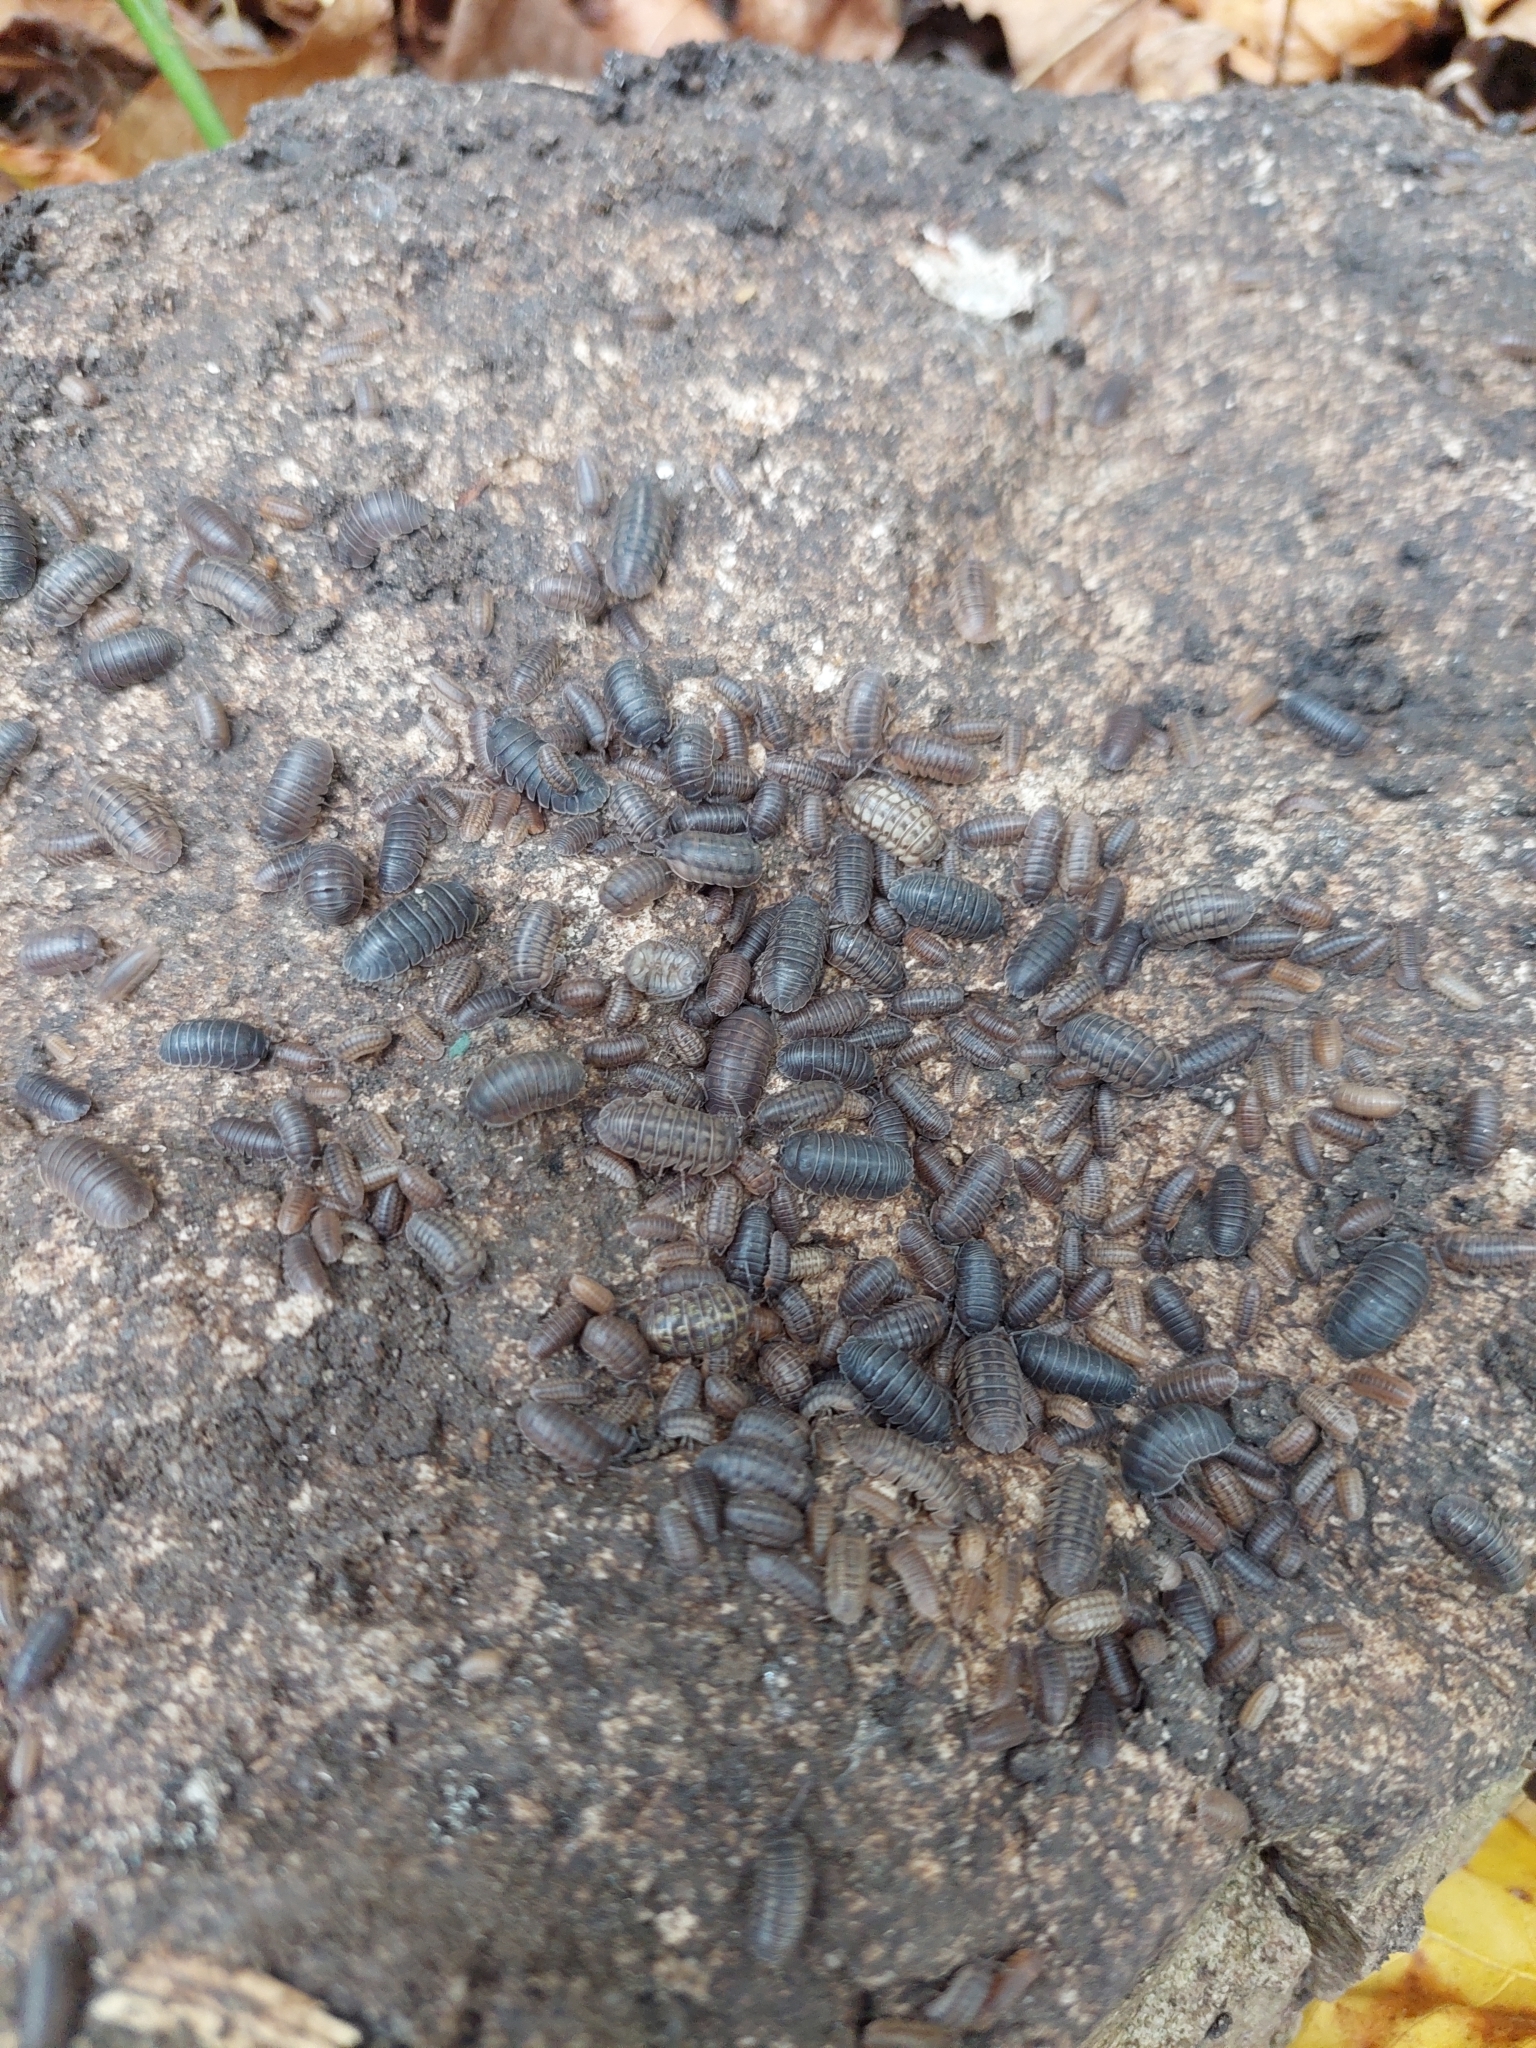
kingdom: Animalia
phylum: Arthropoda
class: Malacostraca
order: Isopoda
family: Armadillidiidae
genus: Armadillidium
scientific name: Armadillidium vulgare
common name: Common pill woodlouse
